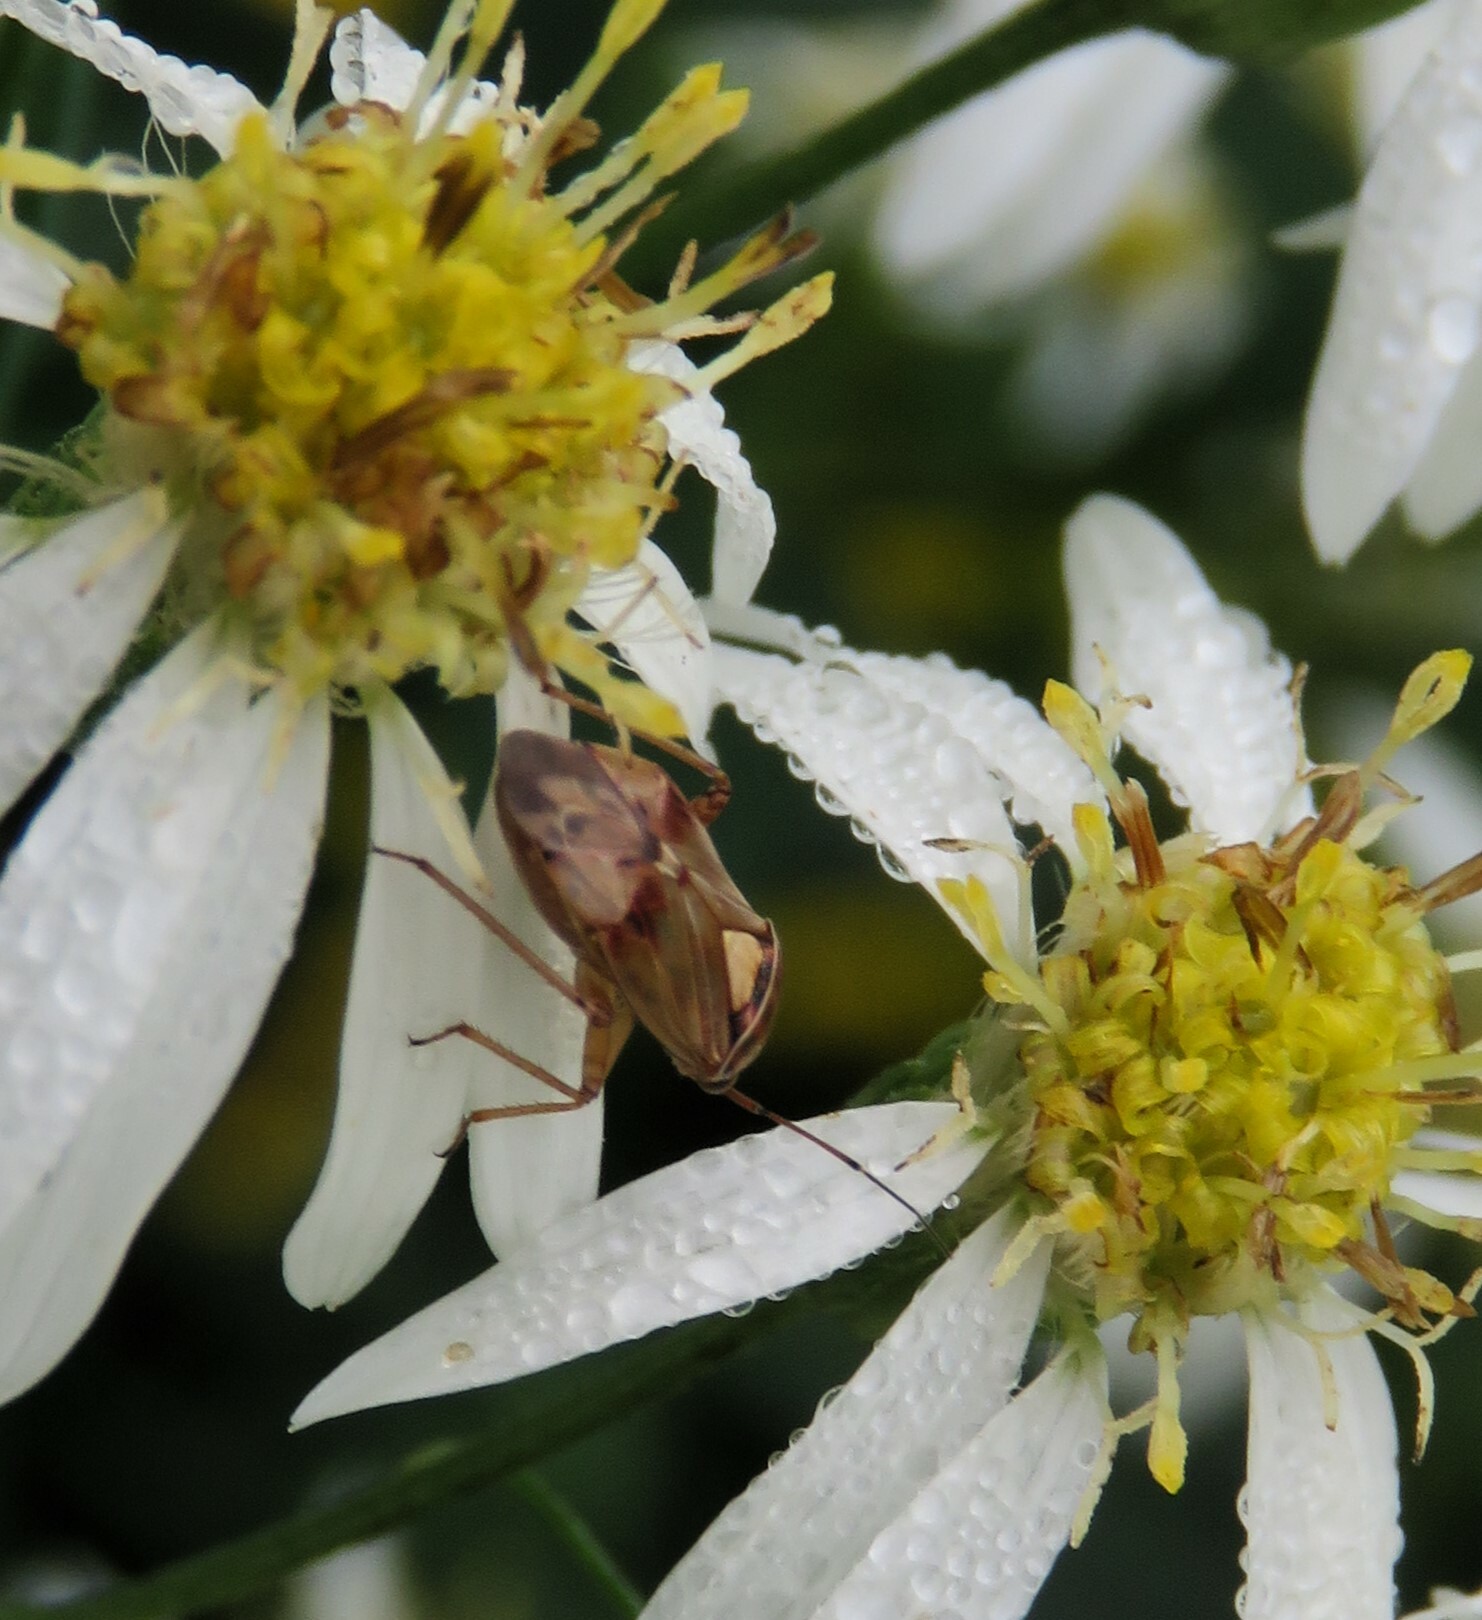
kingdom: Animalia
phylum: Arthropoda
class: Insecta
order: Hemiptera
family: Miridae
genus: Lygus
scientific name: Lygus lineolaris
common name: North american tarnished plant bug
